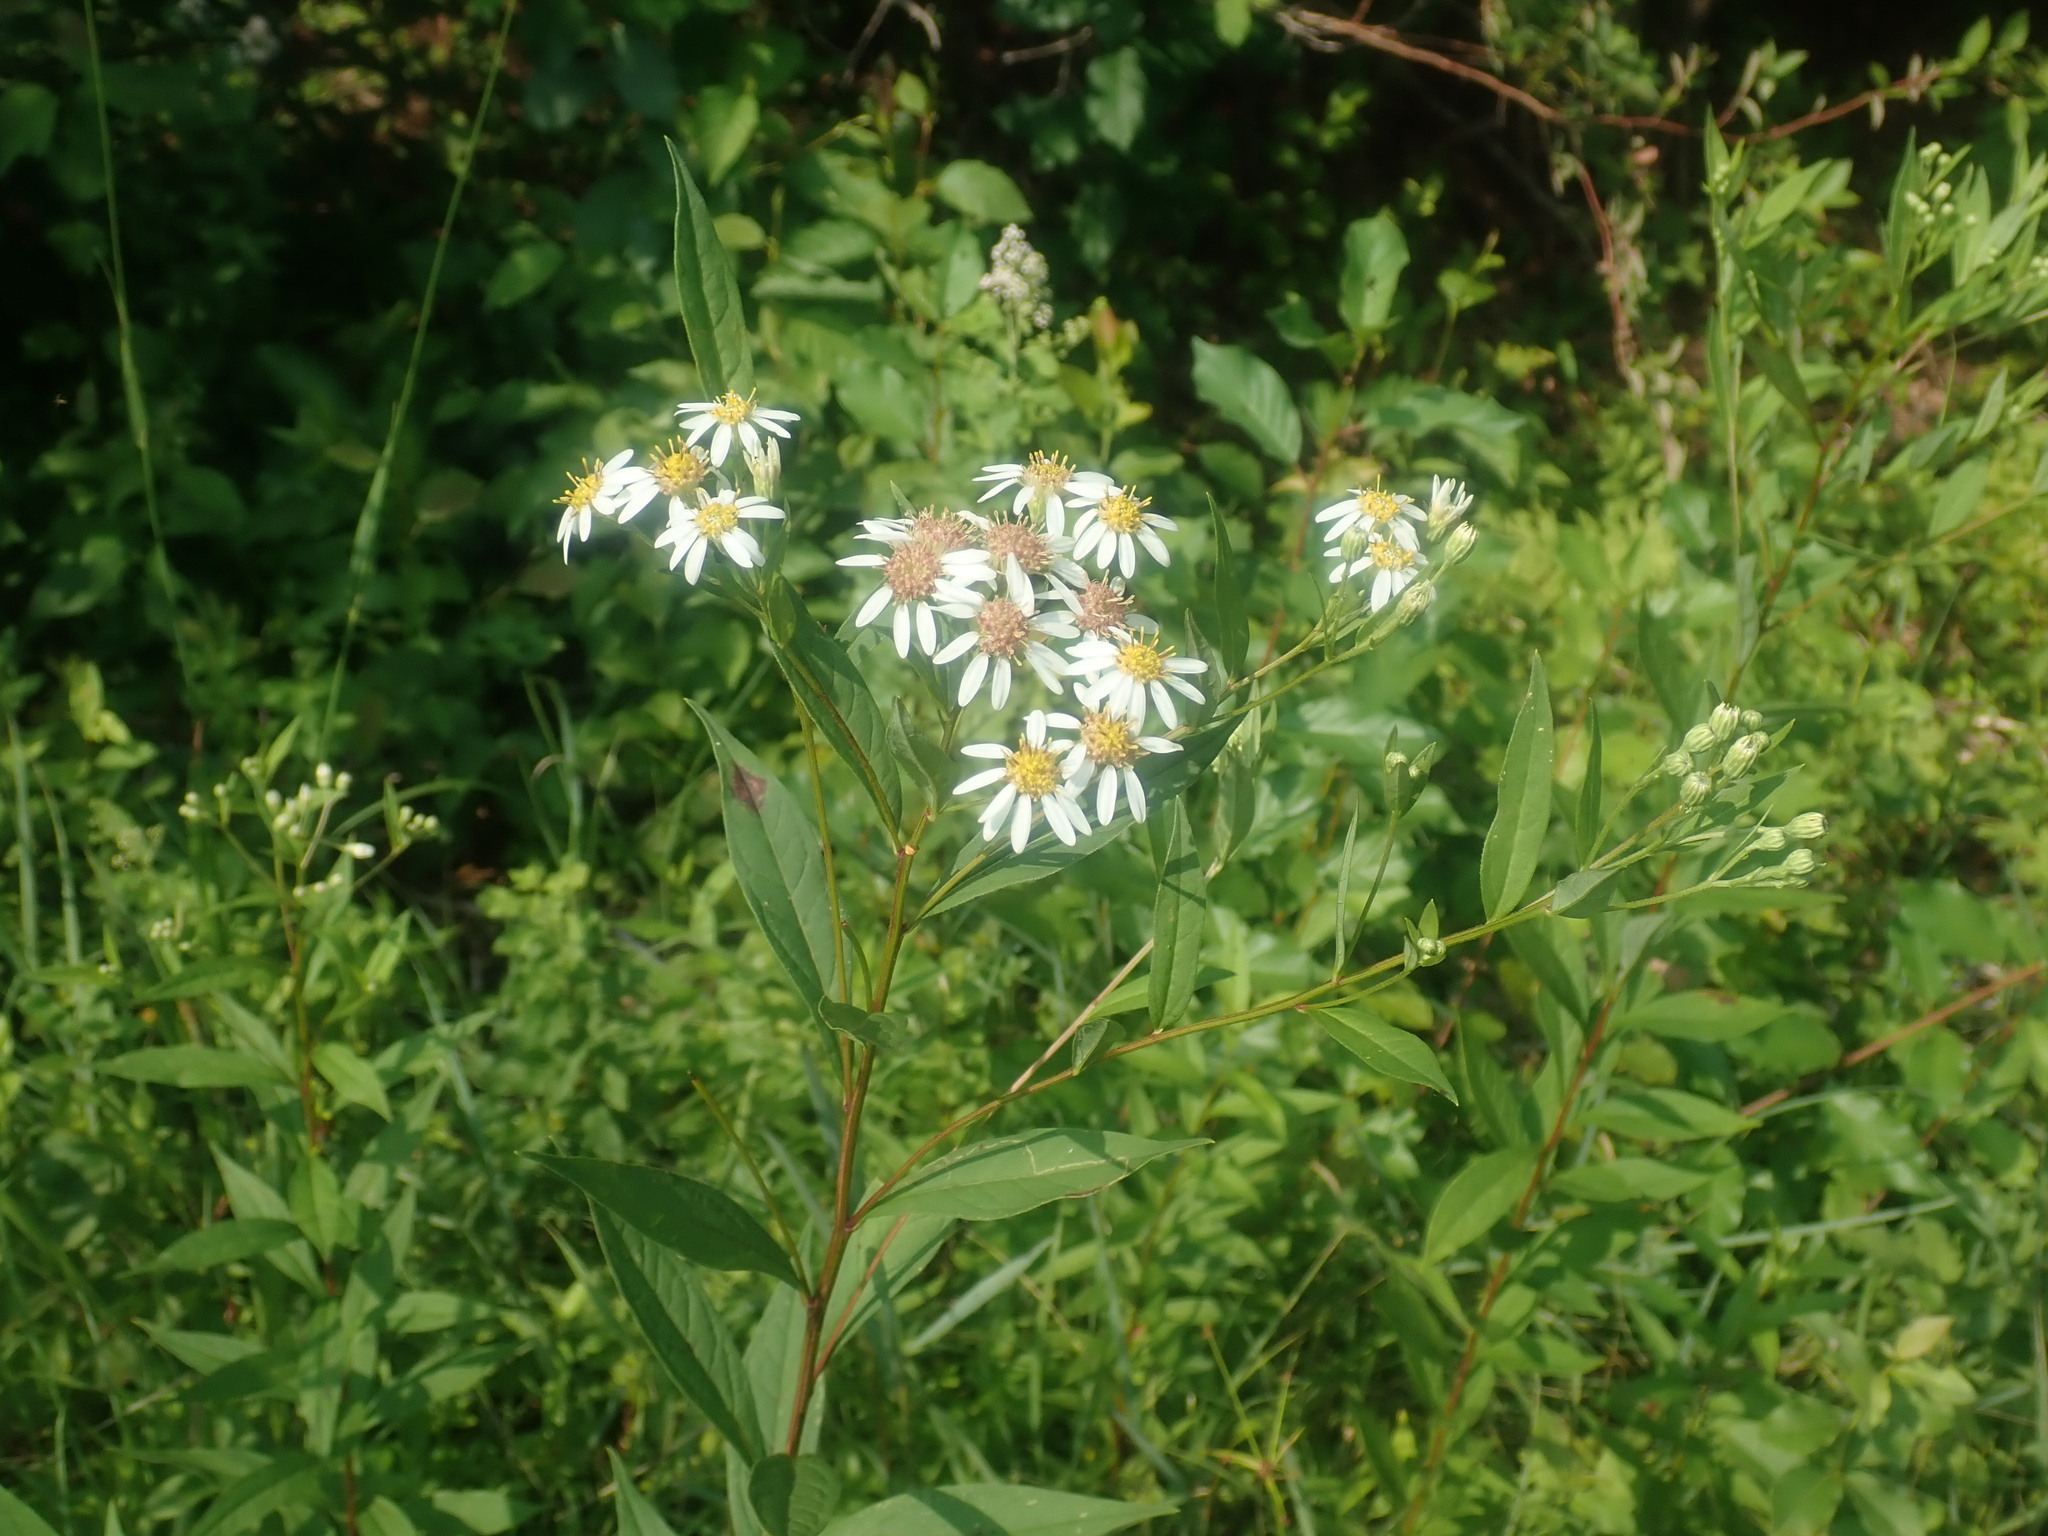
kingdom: Plantae
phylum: Tracheophyta
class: Magnoliopsida
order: Asterales
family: Asteraceae
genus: Doellingeria
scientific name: Doellingeria umbellata
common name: Flat-top white aster
